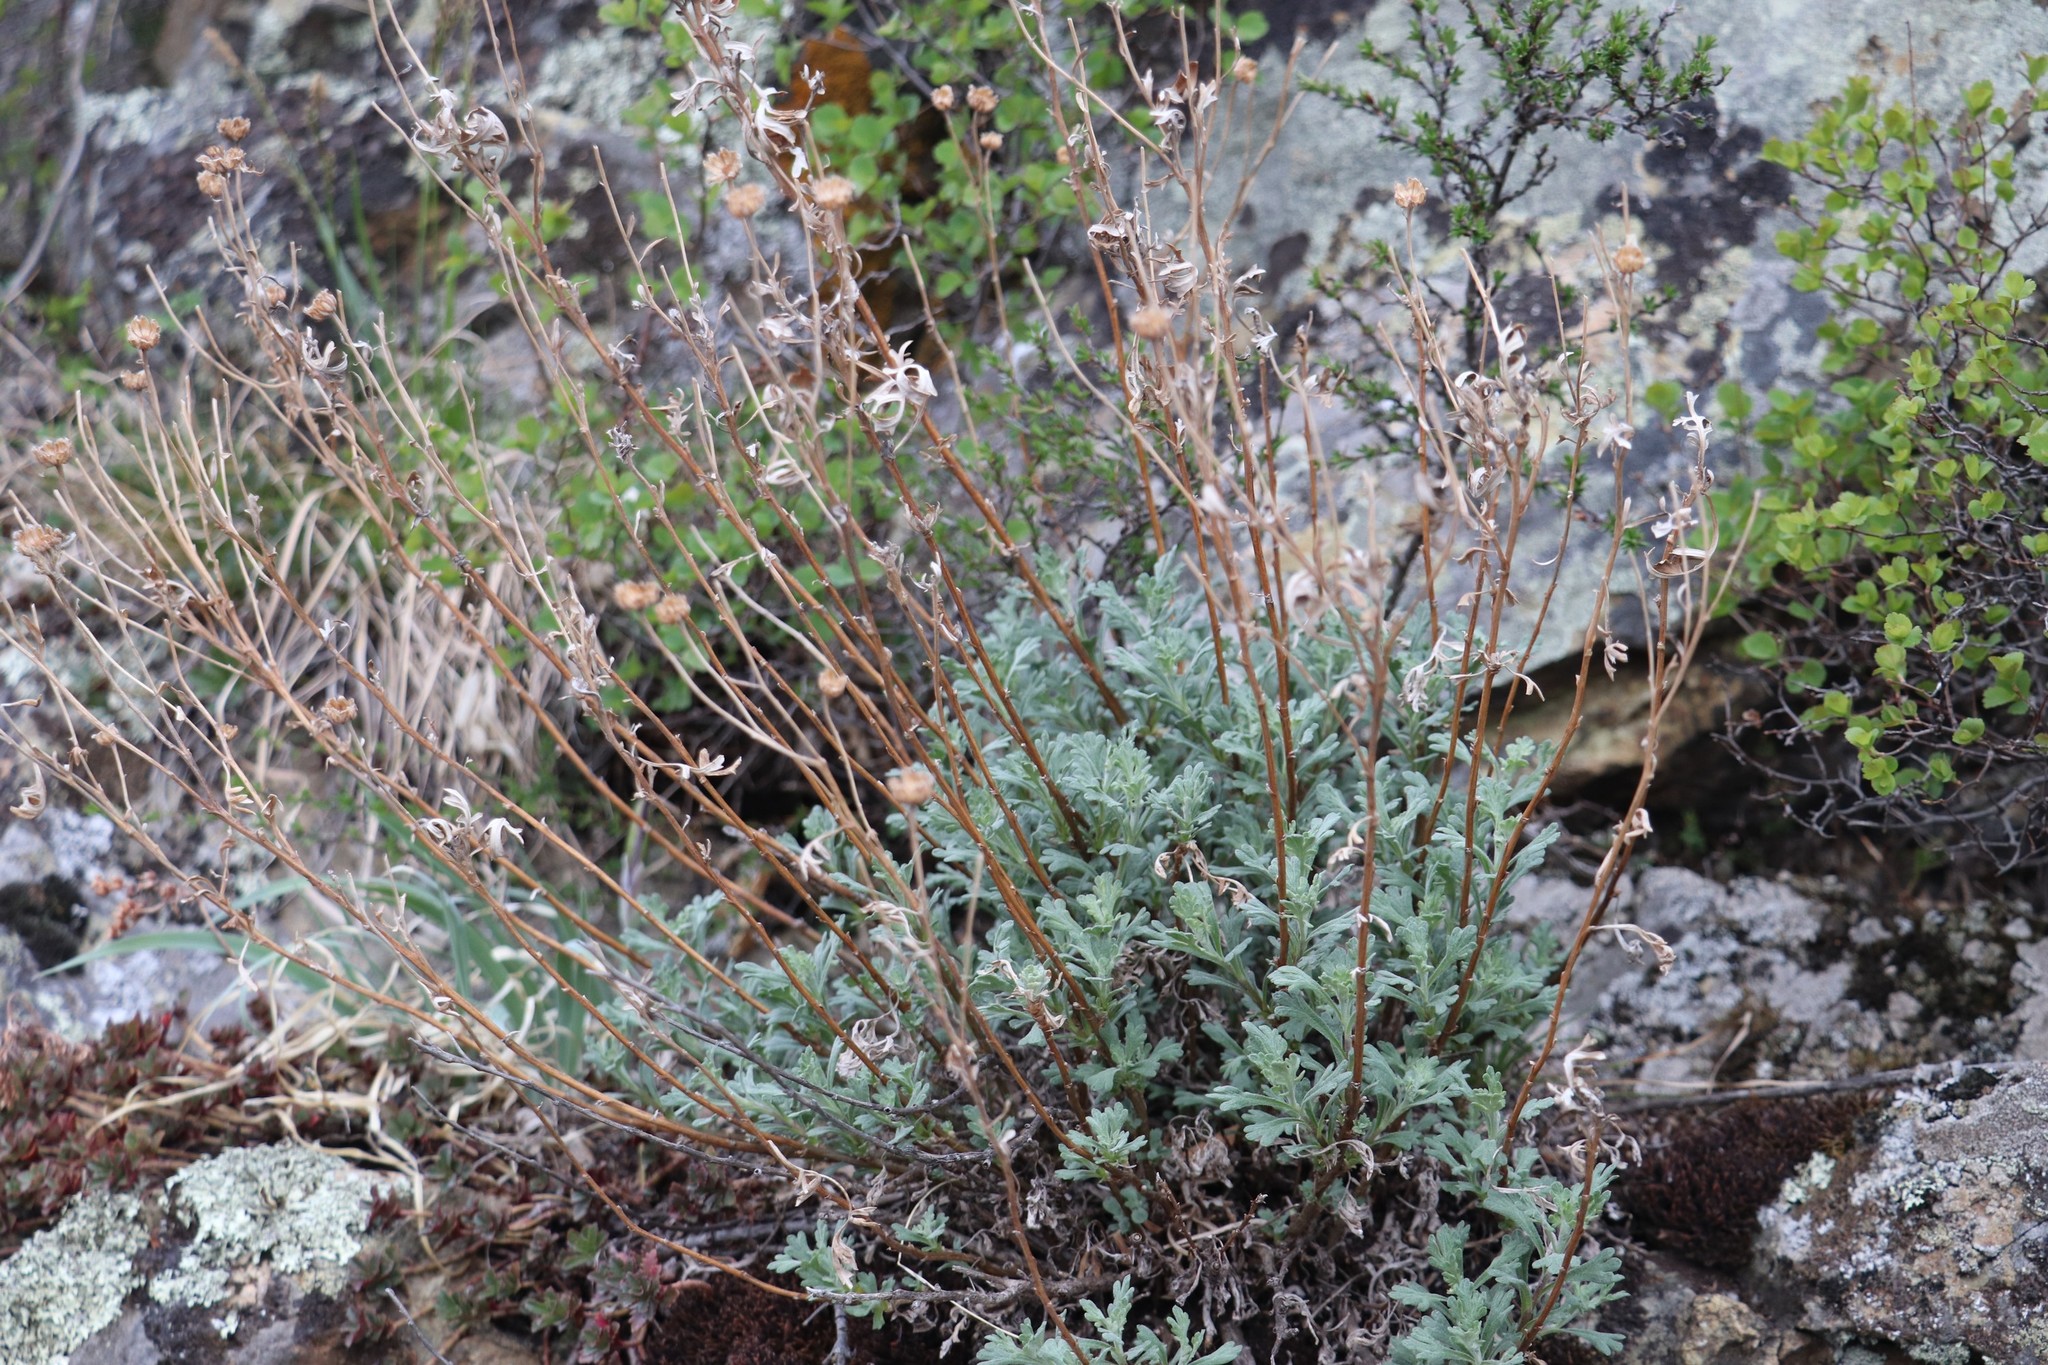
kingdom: Plantae
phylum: Tracheophyta
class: Magnoliopsida
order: Asterales
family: Asteraceae
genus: Chrysanthemum
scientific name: Chrysanthemum sinuatum
